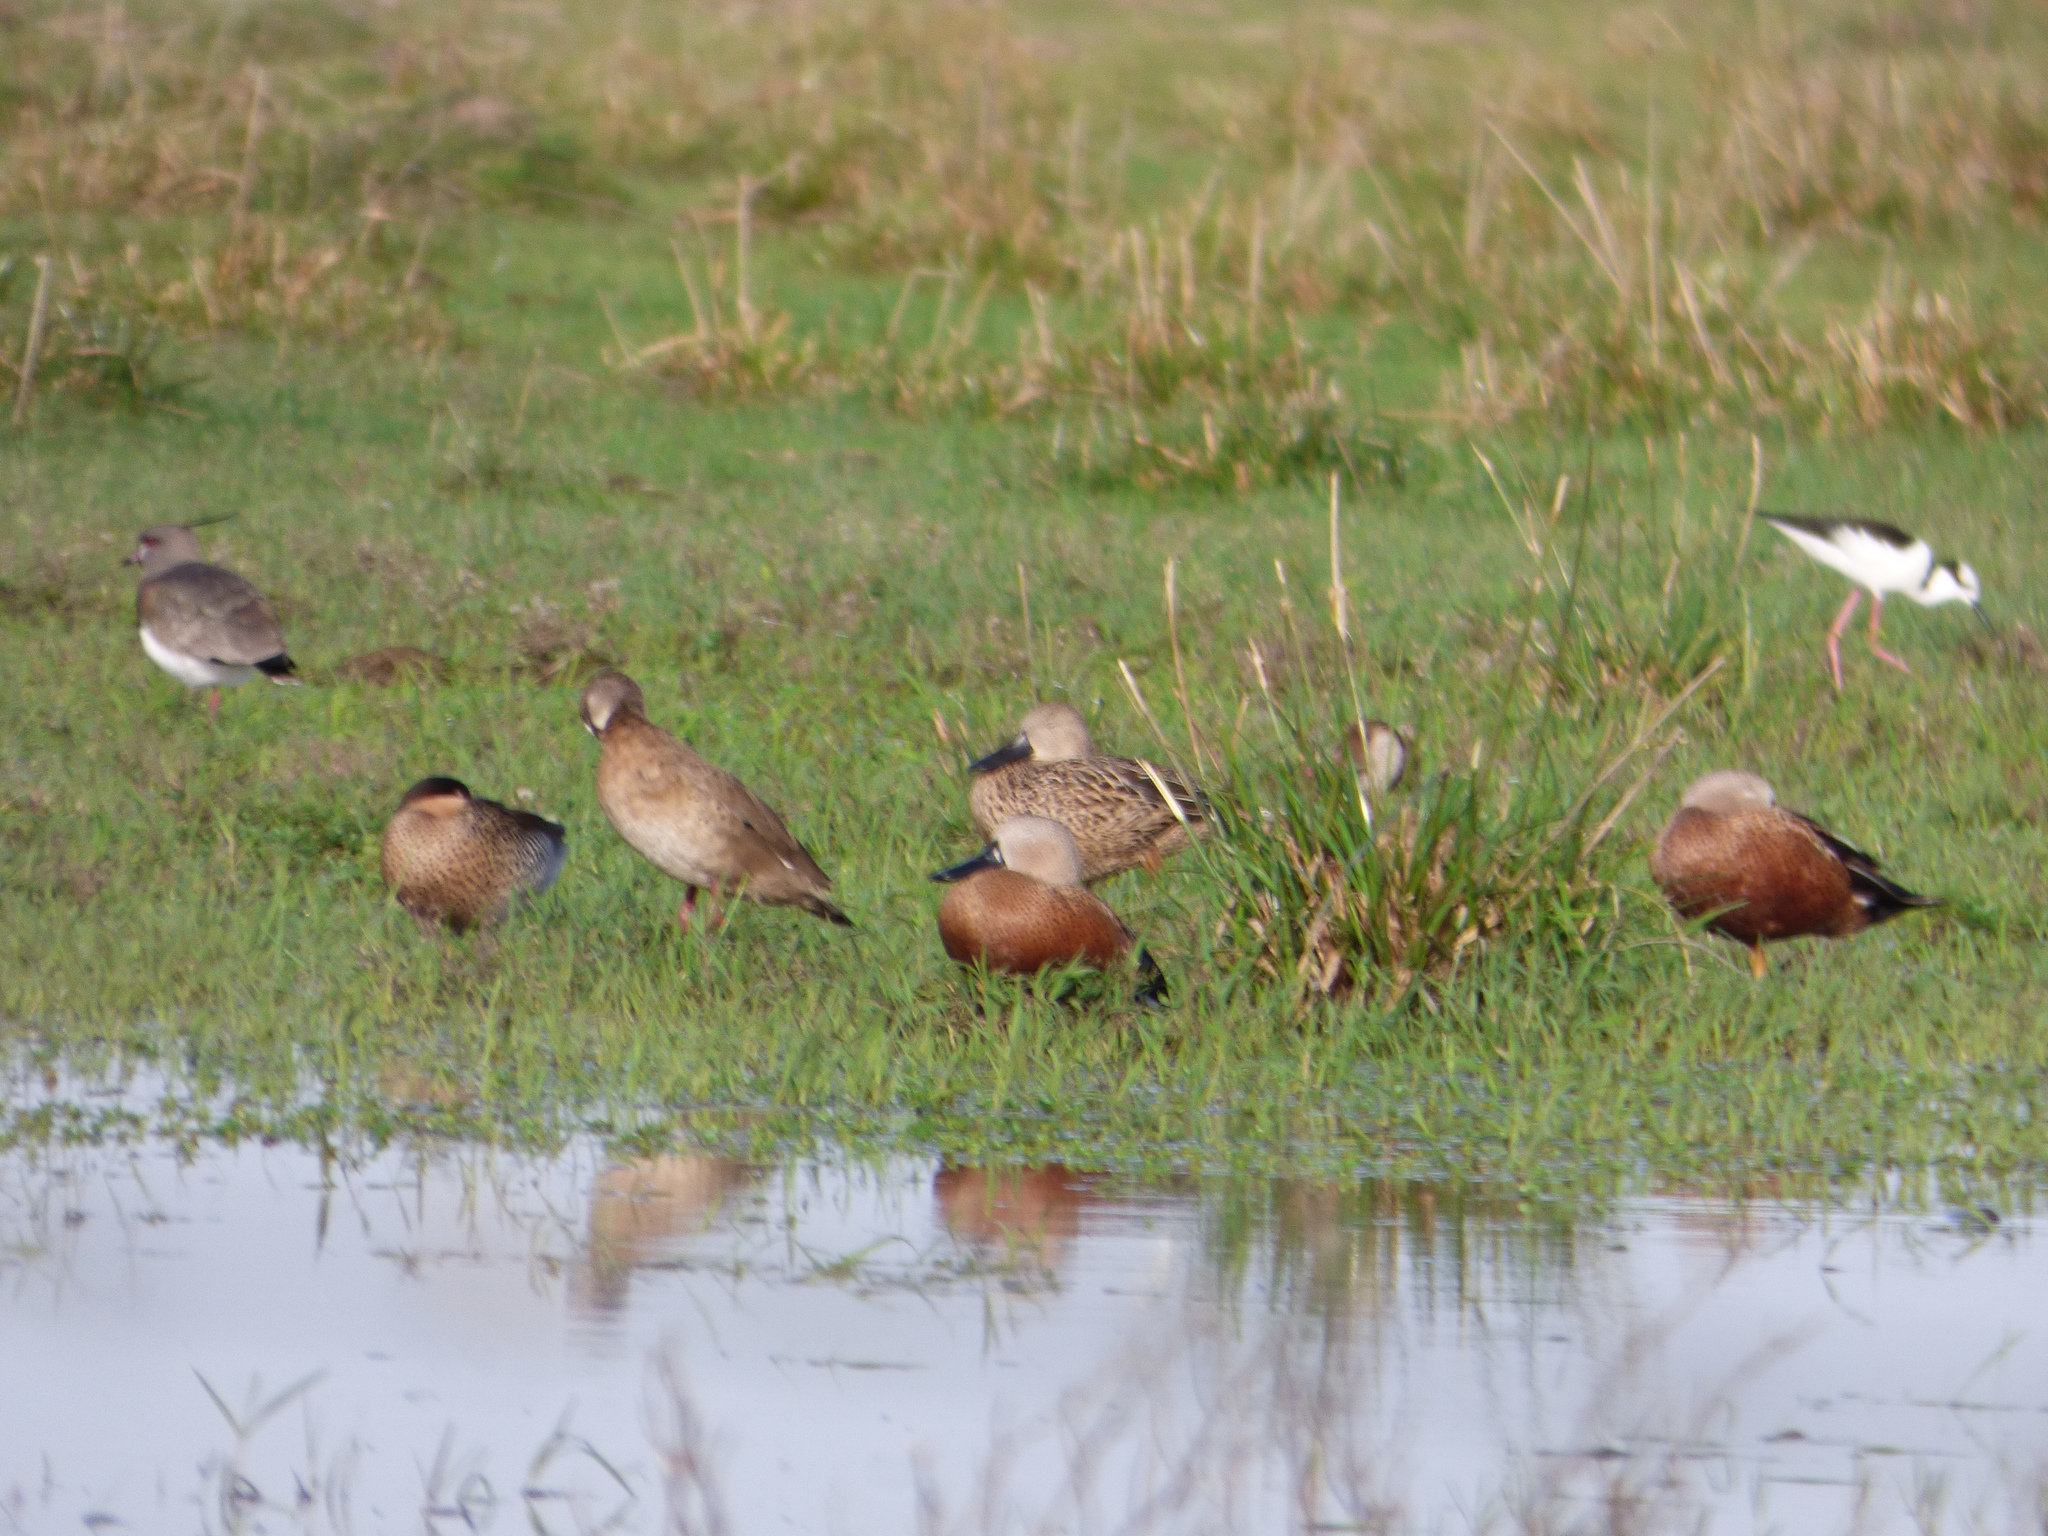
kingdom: Animalia
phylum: Chordata
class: Aves
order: Anseriformes
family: Anatidae
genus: Spatula
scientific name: Spatula platalea
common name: Red shoveler
